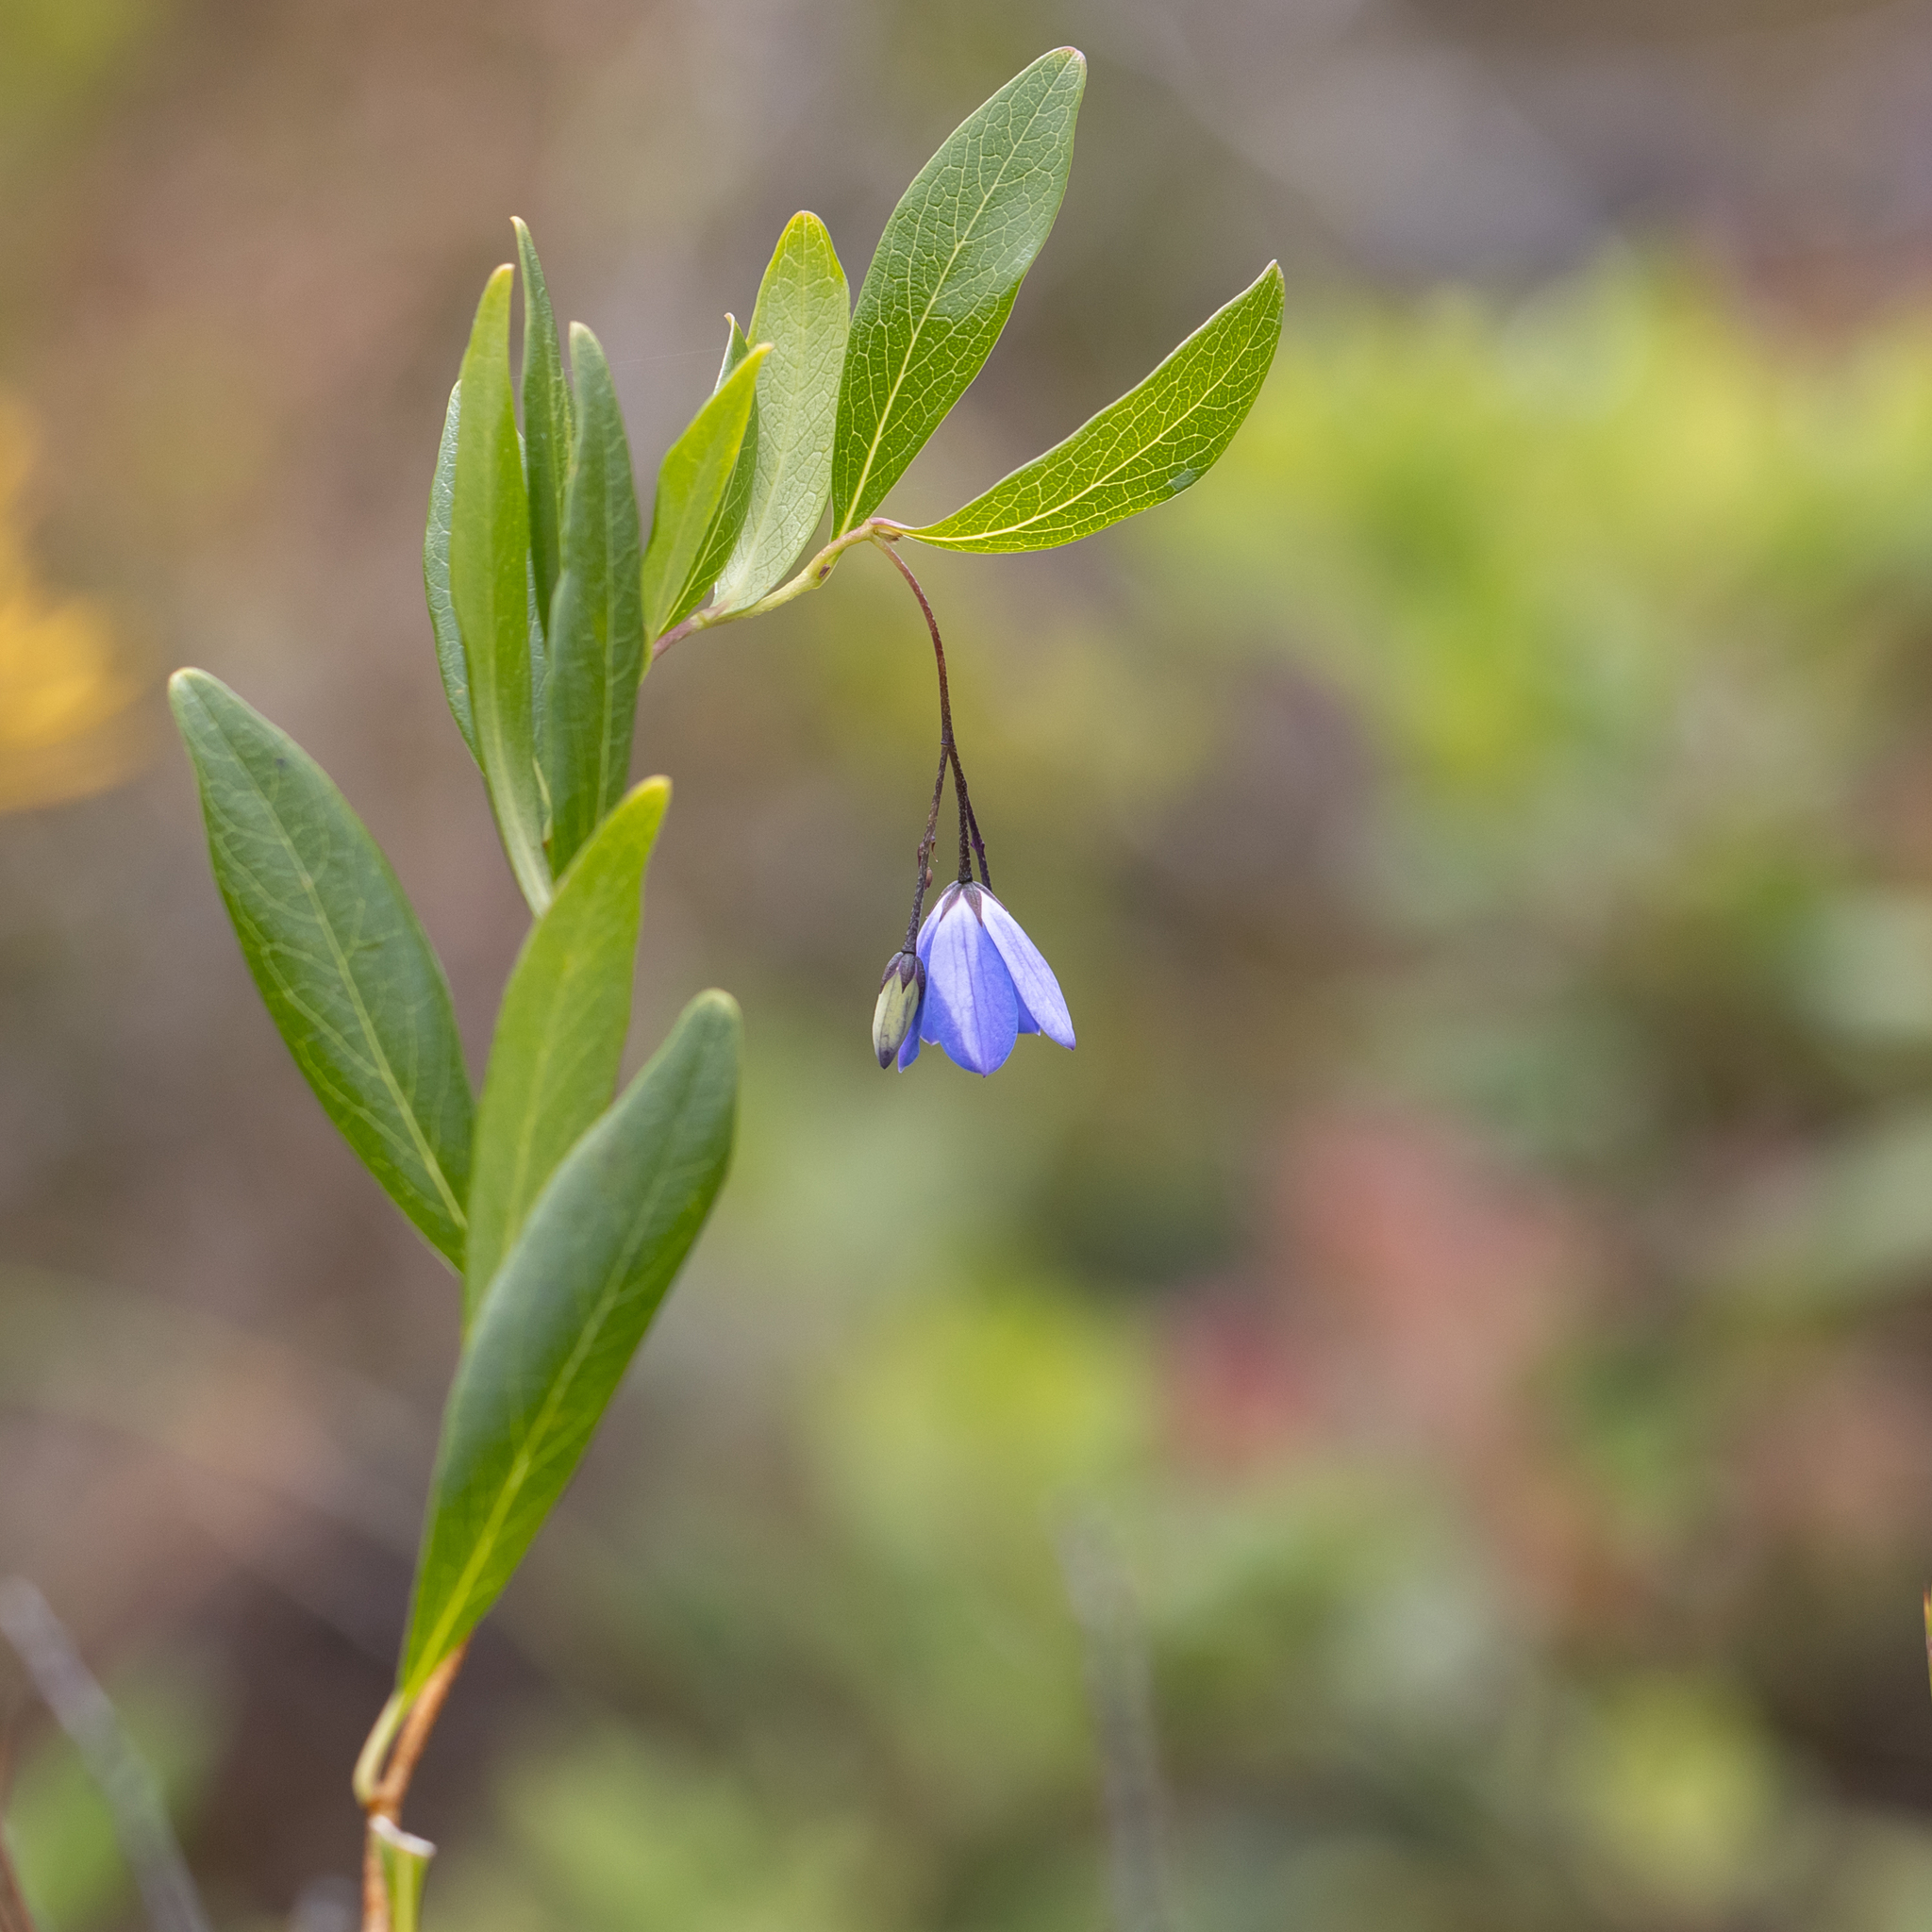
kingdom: Plantae
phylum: Tracheophyta
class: Magnoliopsida
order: Apiales
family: Pittosporaceae
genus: Billardiera
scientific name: Billardiera heterophylla
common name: Bluebell creeper
